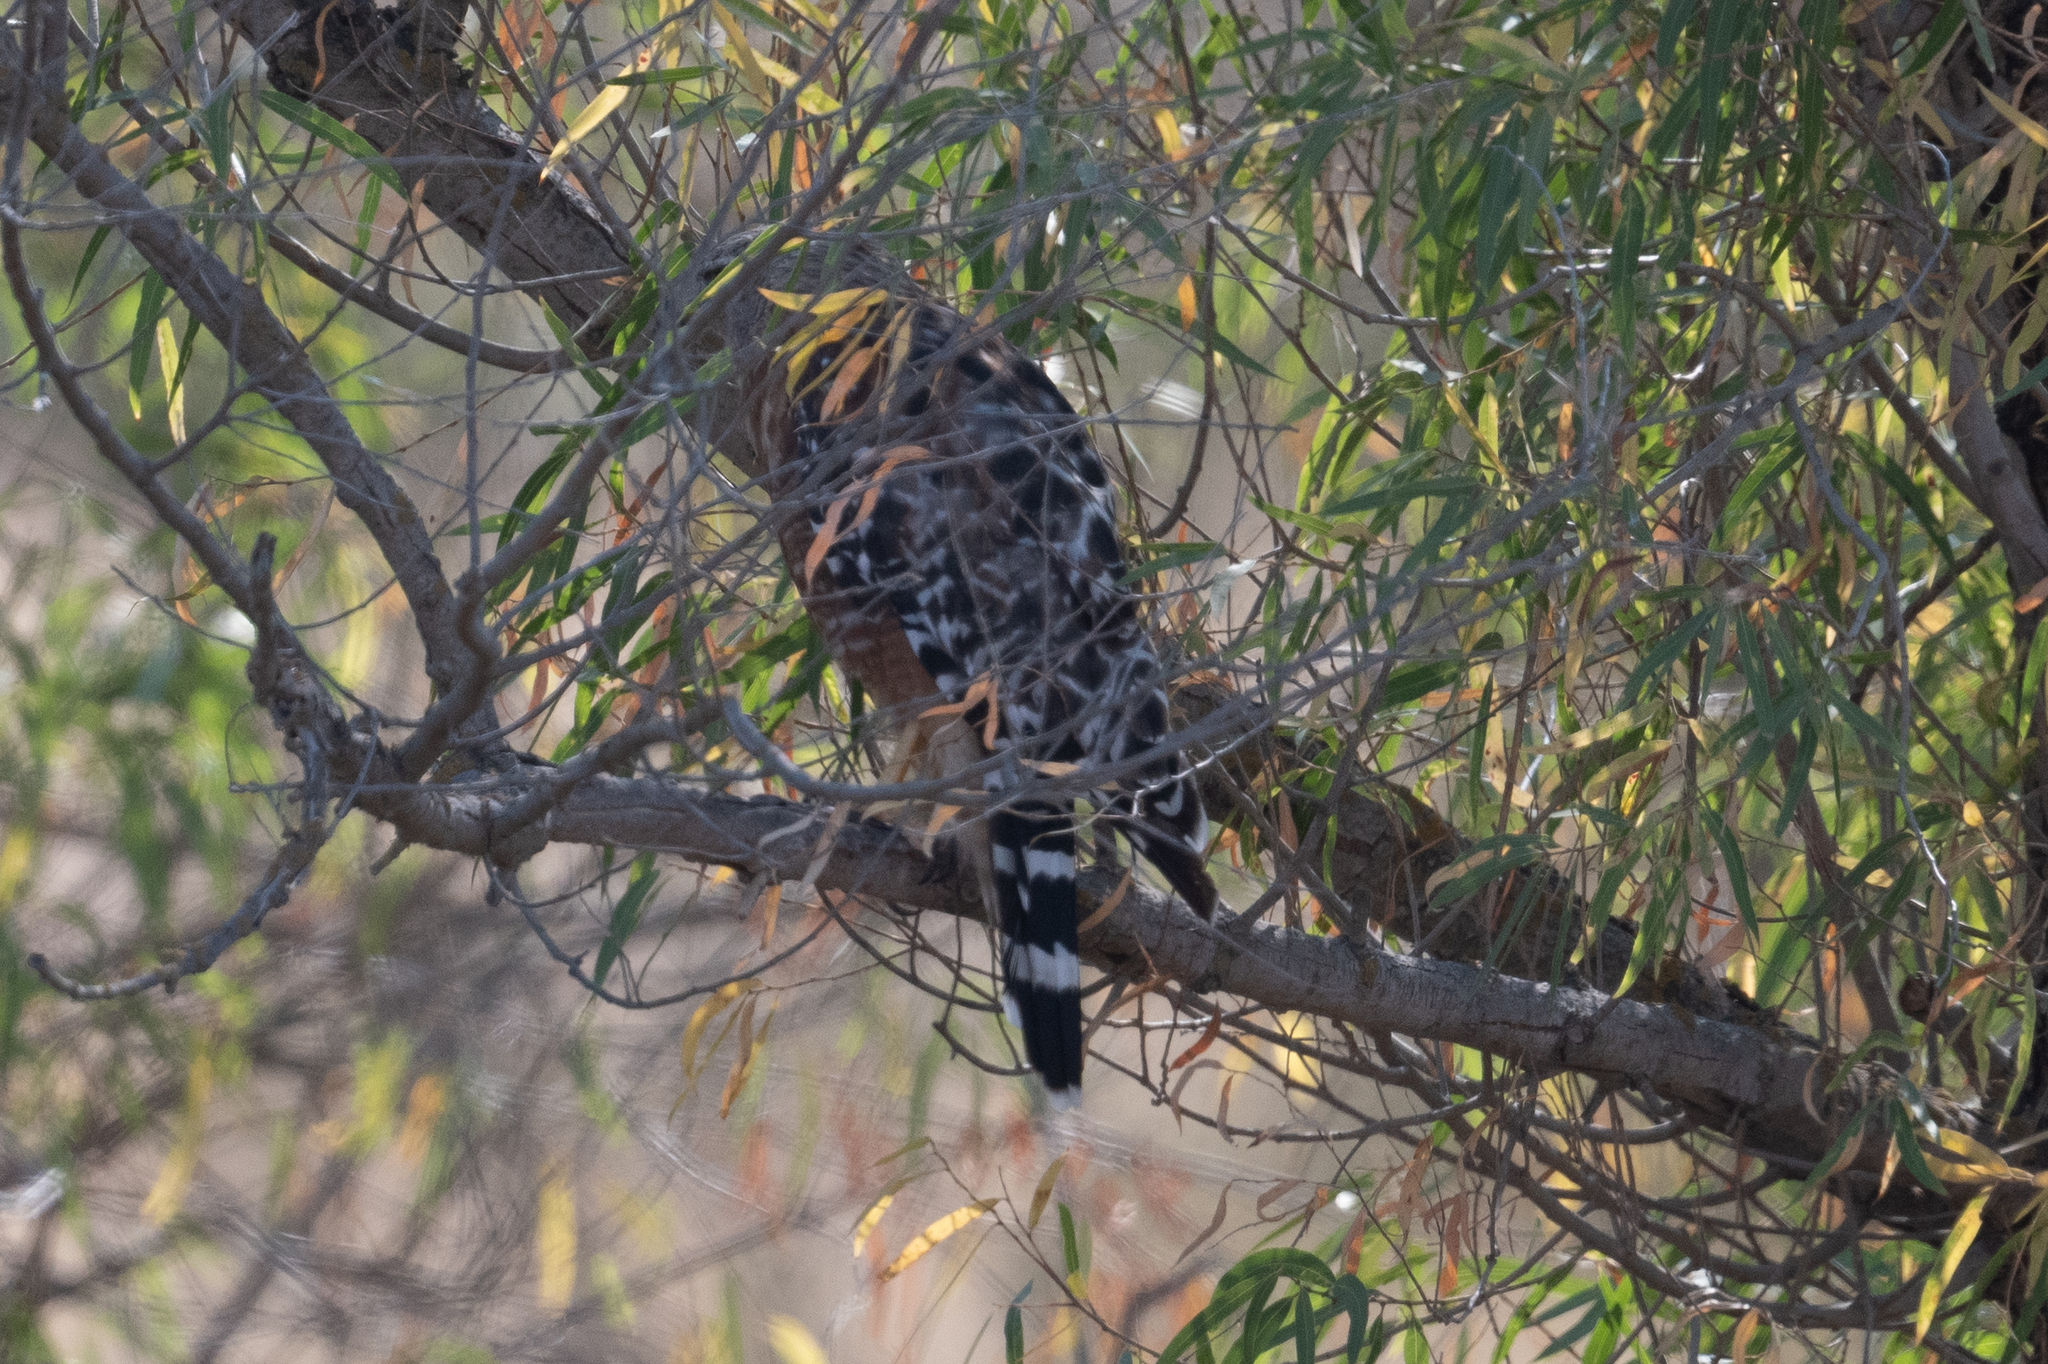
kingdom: Animalia
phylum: Chordata
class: Aves
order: Accipitriformes
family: Accipitridae
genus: Buteo
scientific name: Buteo lineatus
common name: Red-shouldered hawk
